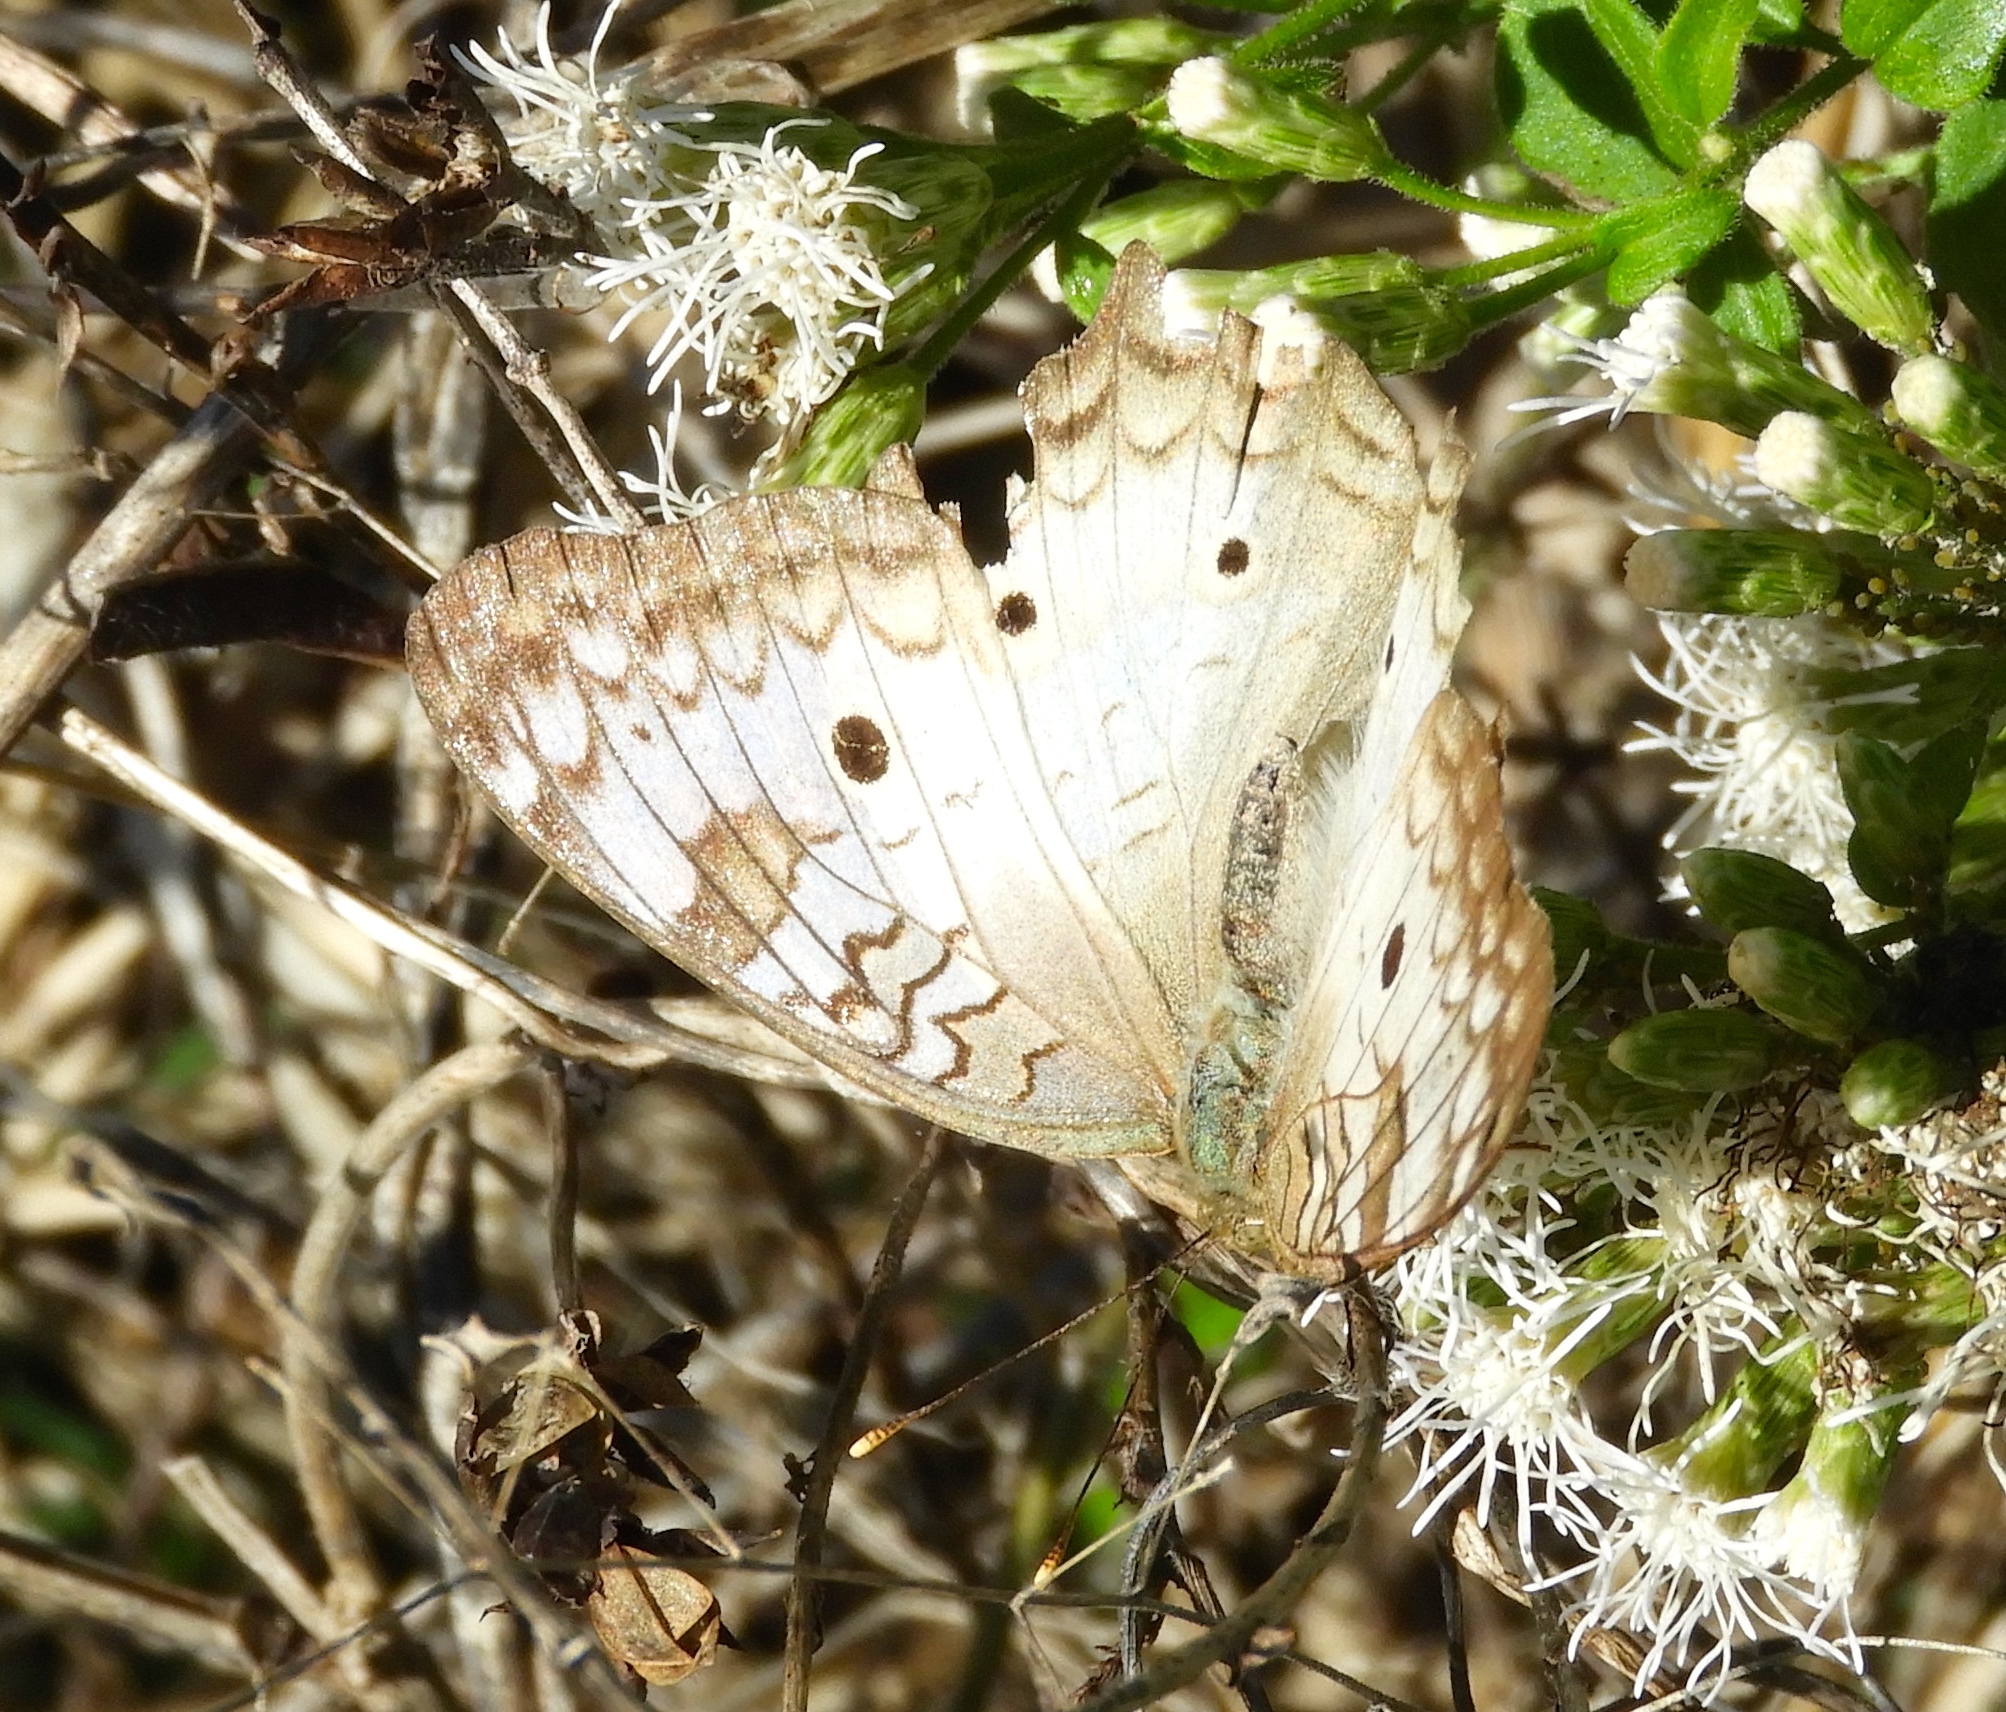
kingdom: Animalia
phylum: Arthropoda
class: Insecta
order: Lepidoptera
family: Nymphalidae
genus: Anartia
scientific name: Anartia jatrophae
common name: White peacock
